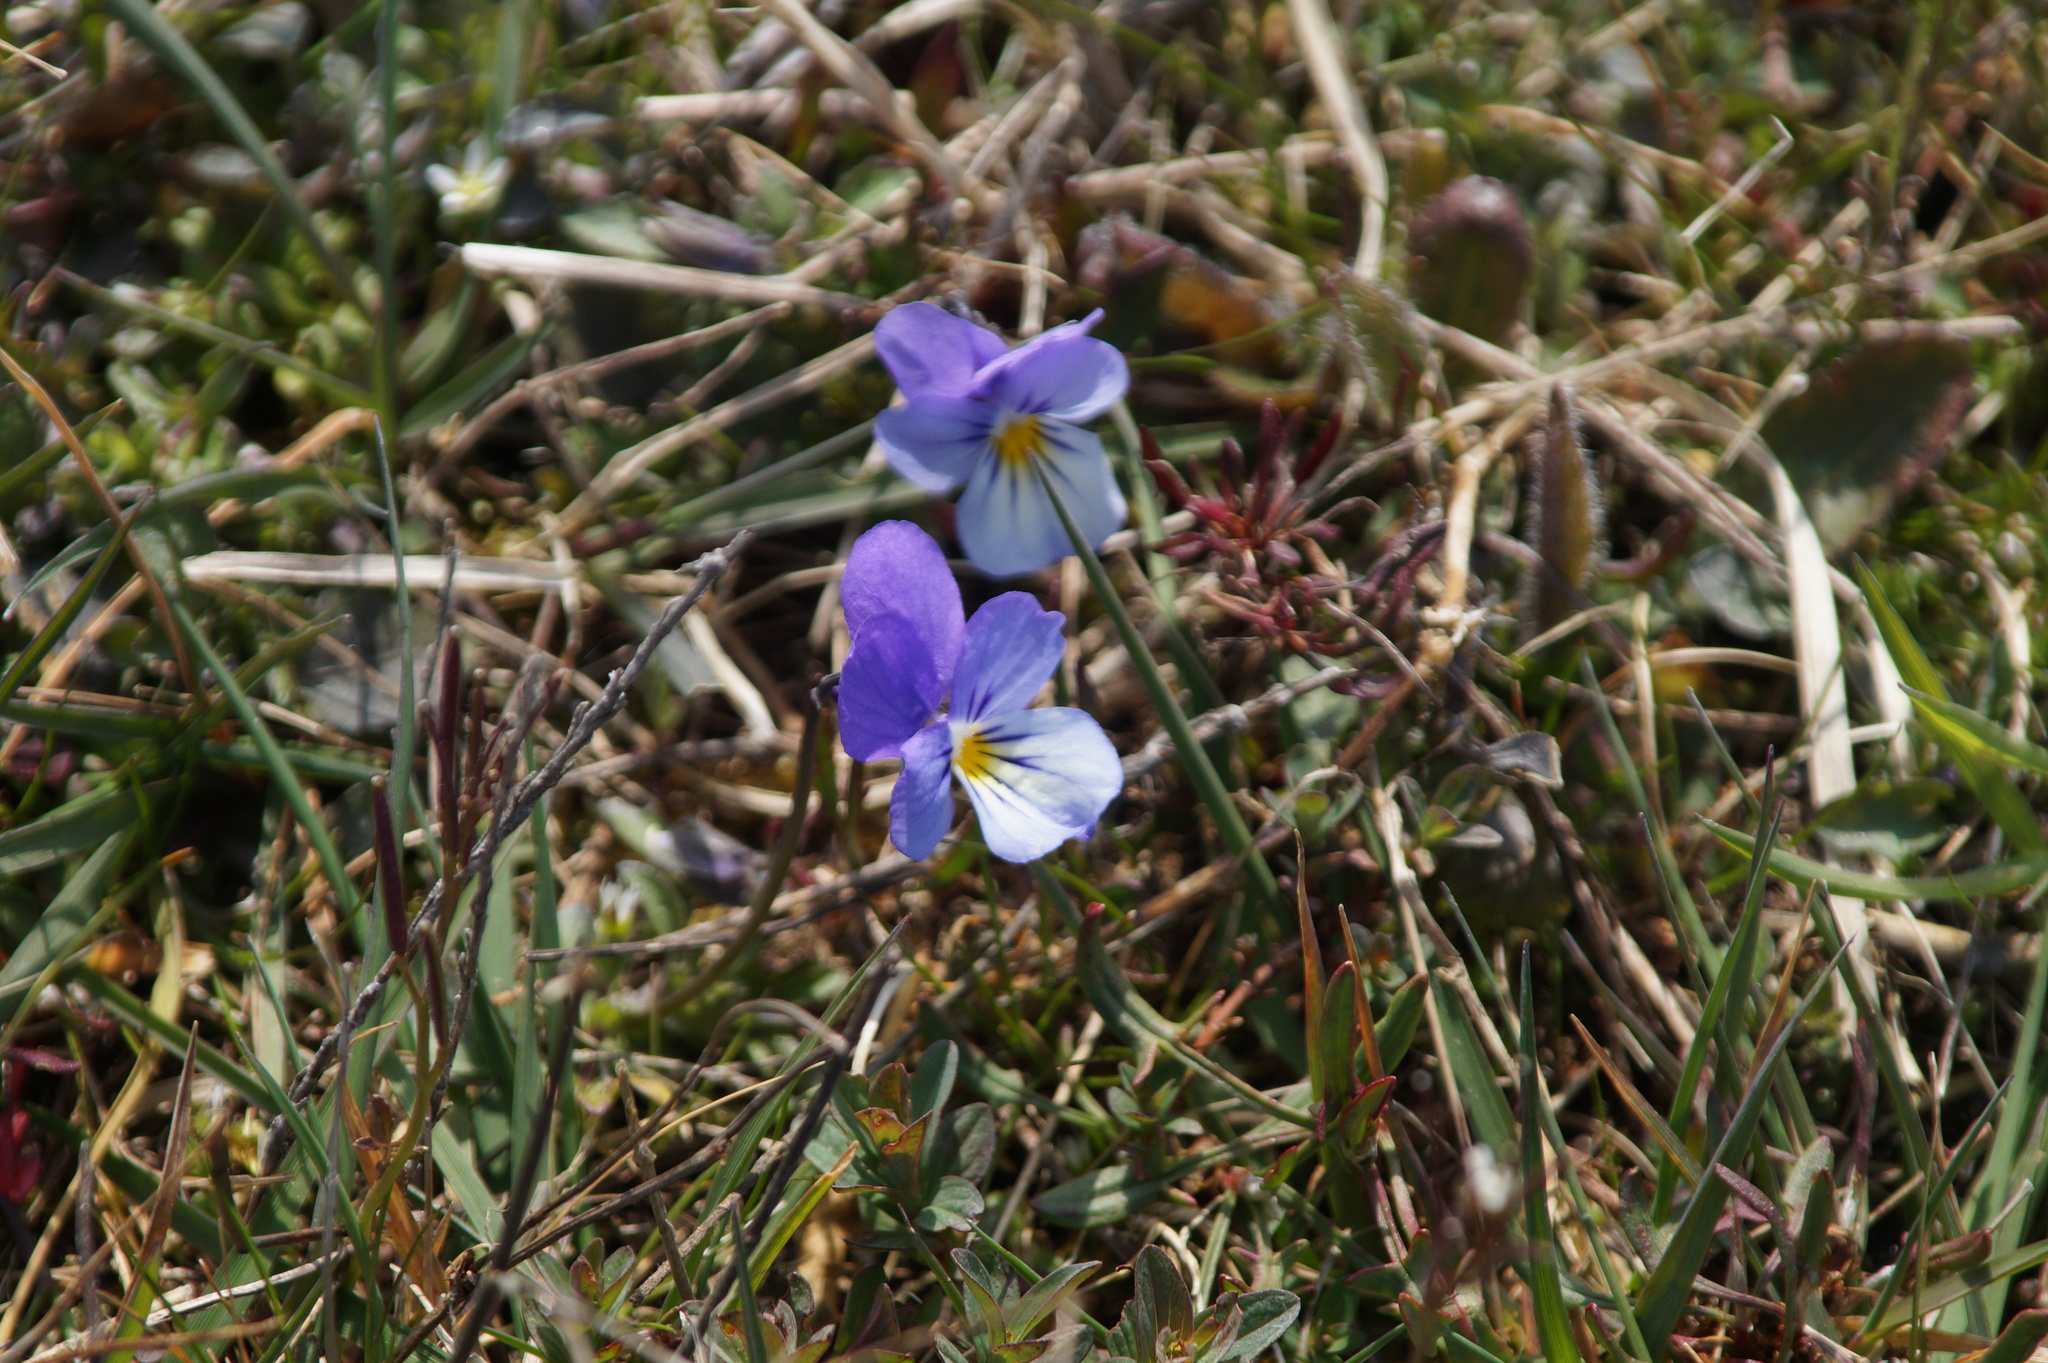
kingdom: Plantae
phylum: Tracheophyta
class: Magnoliopsida
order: Malpighiales
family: Violaceae
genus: Viola
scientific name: Viola tricolor
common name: Pansy
